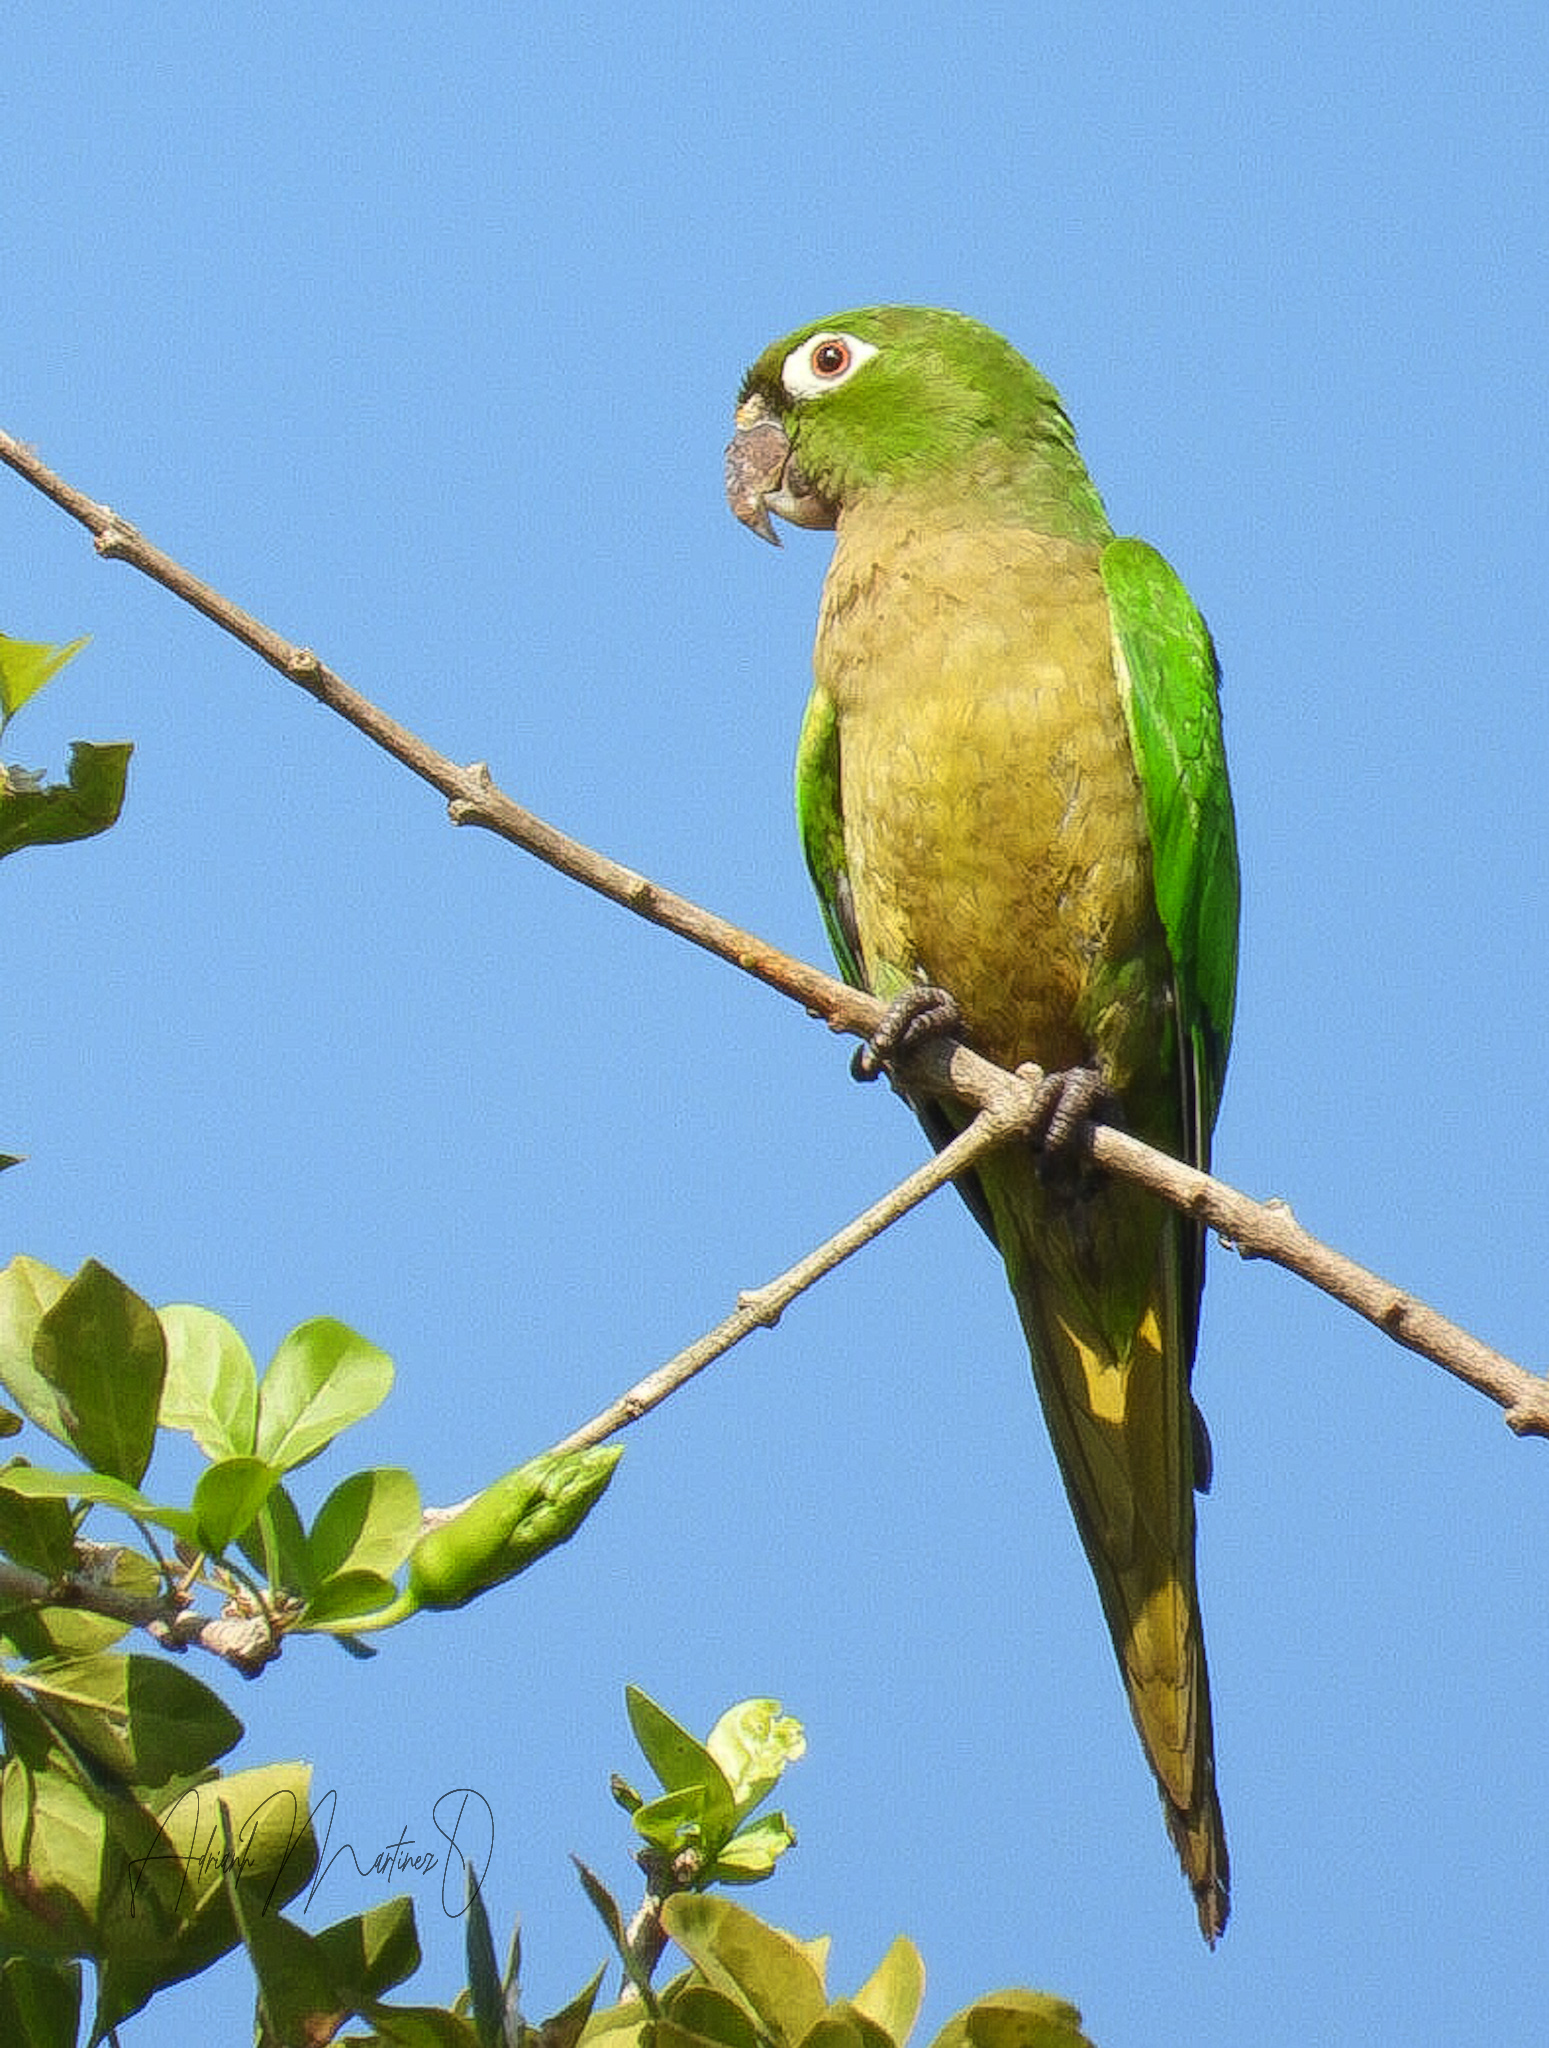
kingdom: Animalia
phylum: Chordata
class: Aves
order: Psittaciformes
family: Psittacidae
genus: Aratinga
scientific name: Aratinga nana
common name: Olive-throated parakeet
